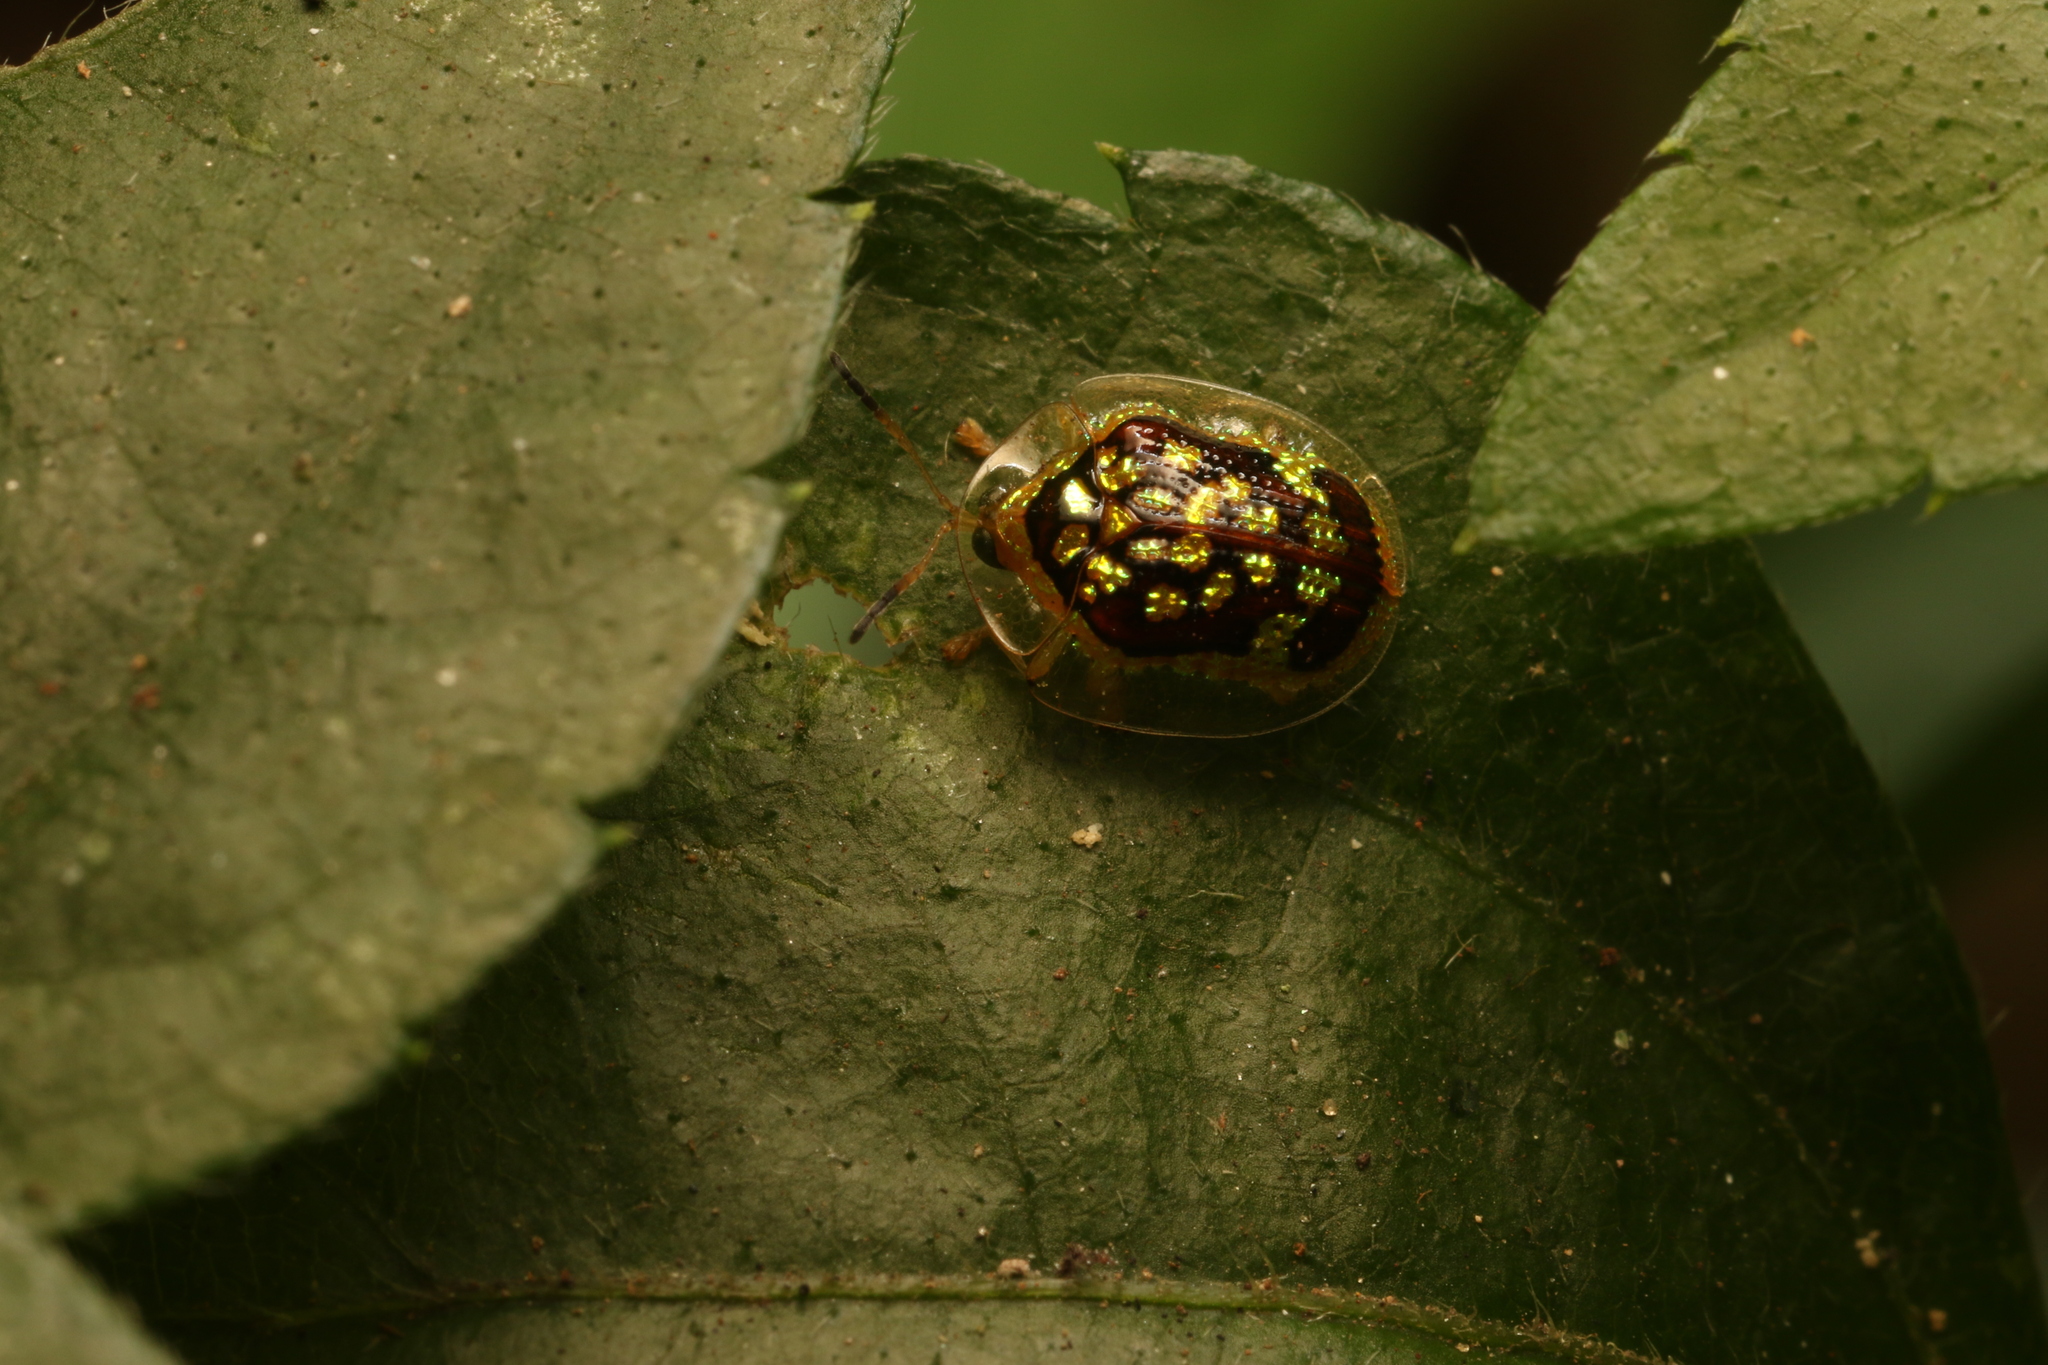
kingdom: Animalia
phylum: Arthropoda
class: Insecta
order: Coleoptera
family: Chrysomelidae
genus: Microctenochira
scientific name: Microctenochira brasiliensis
